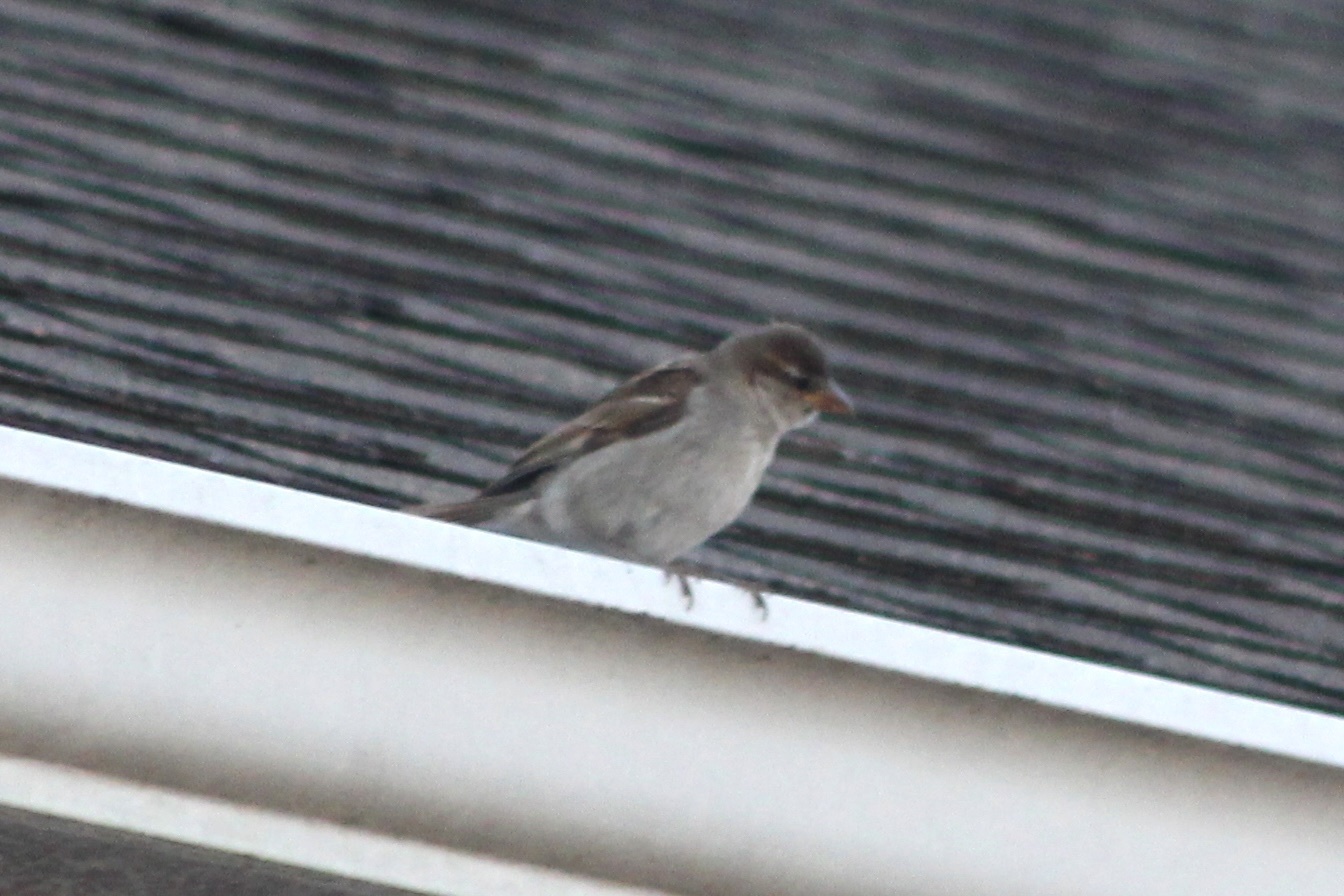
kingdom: Animalia
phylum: Chordata
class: Aves
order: Passeriformes
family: Passeridae
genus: Passer
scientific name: Passer domesticus
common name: House sparrow
